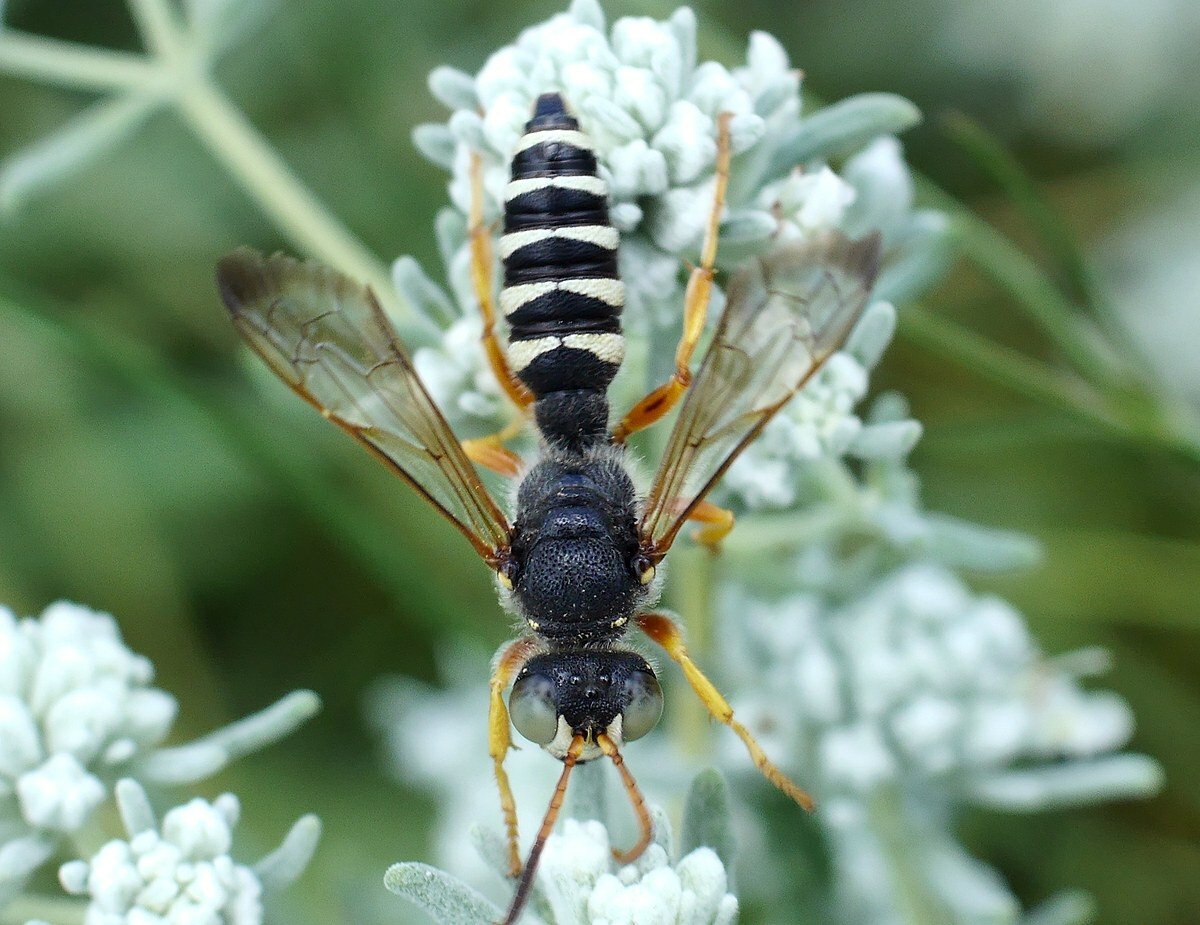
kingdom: Animalia
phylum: Arthropoda
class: Insecta
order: Hymenoptera
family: Crabronidae
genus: Cerceris
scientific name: Cerceris tuberculata
